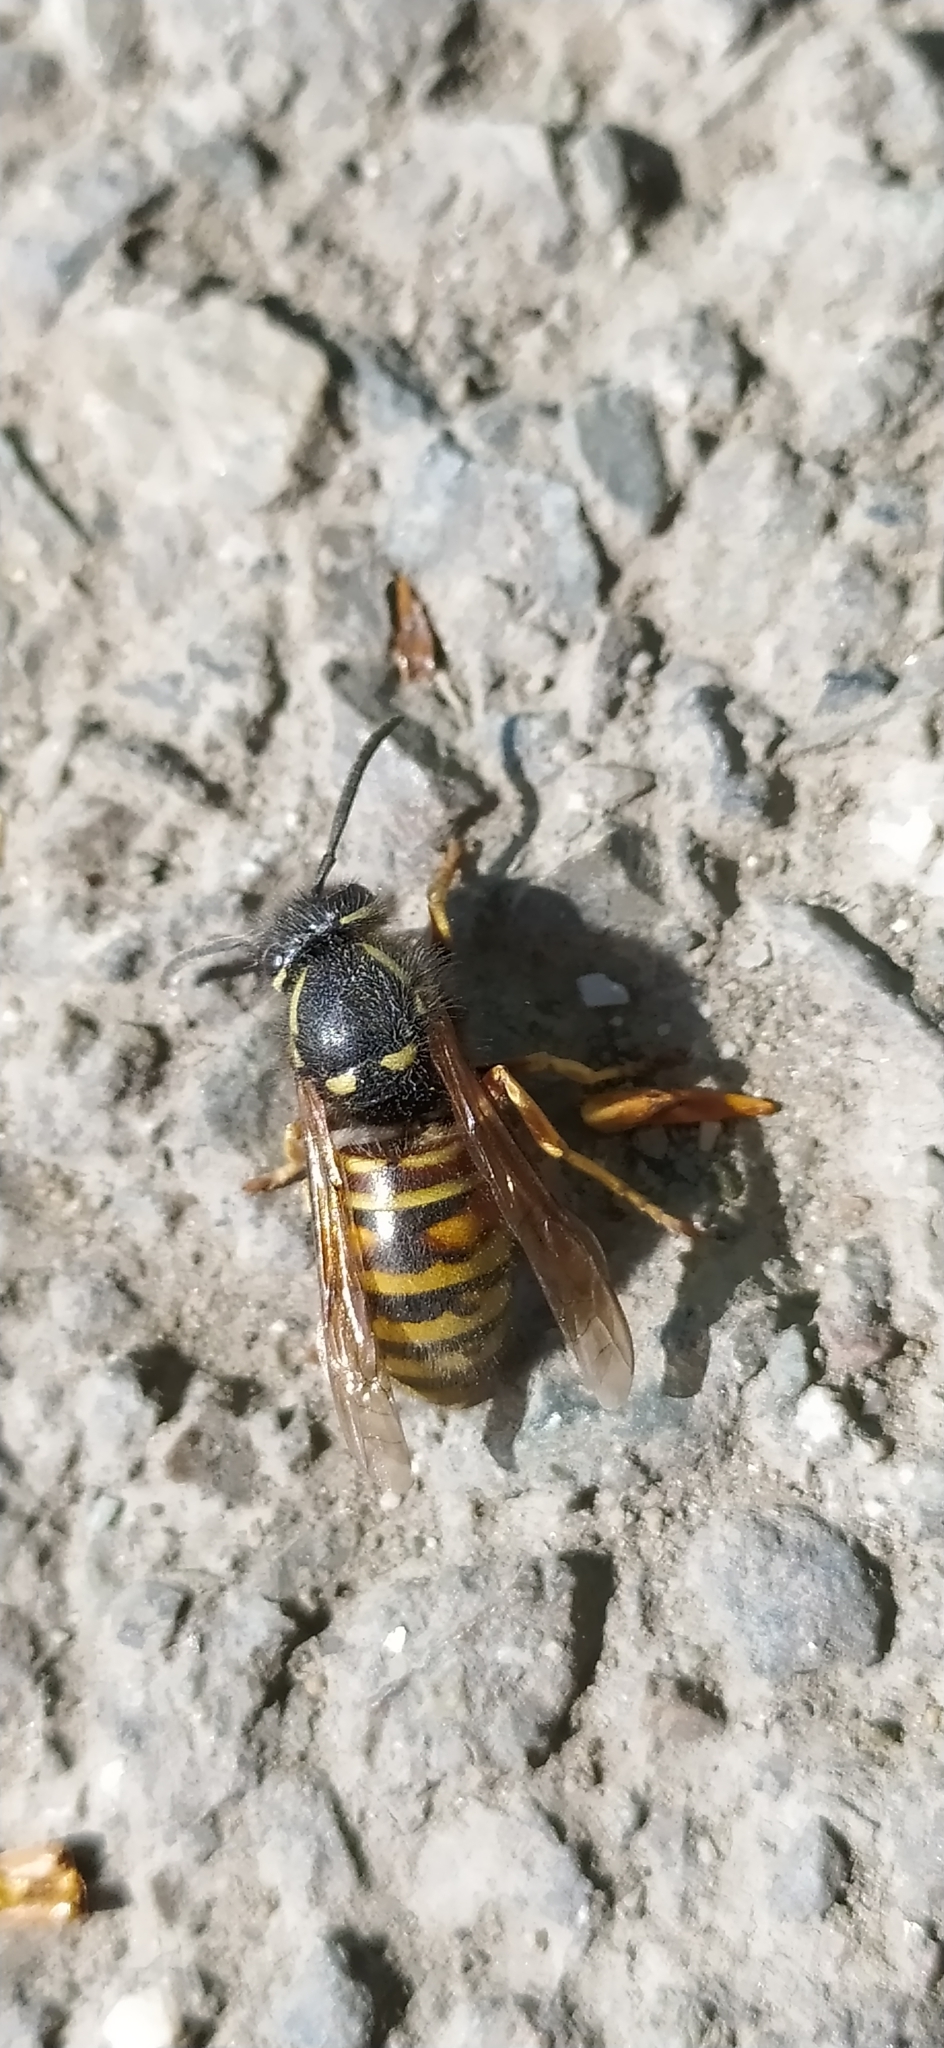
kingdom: Animalia
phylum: Arthropoda
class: Insecta
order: Hymenoptera
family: Vespidae
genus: Vespula
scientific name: Vespula rufa
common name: Red wasp
